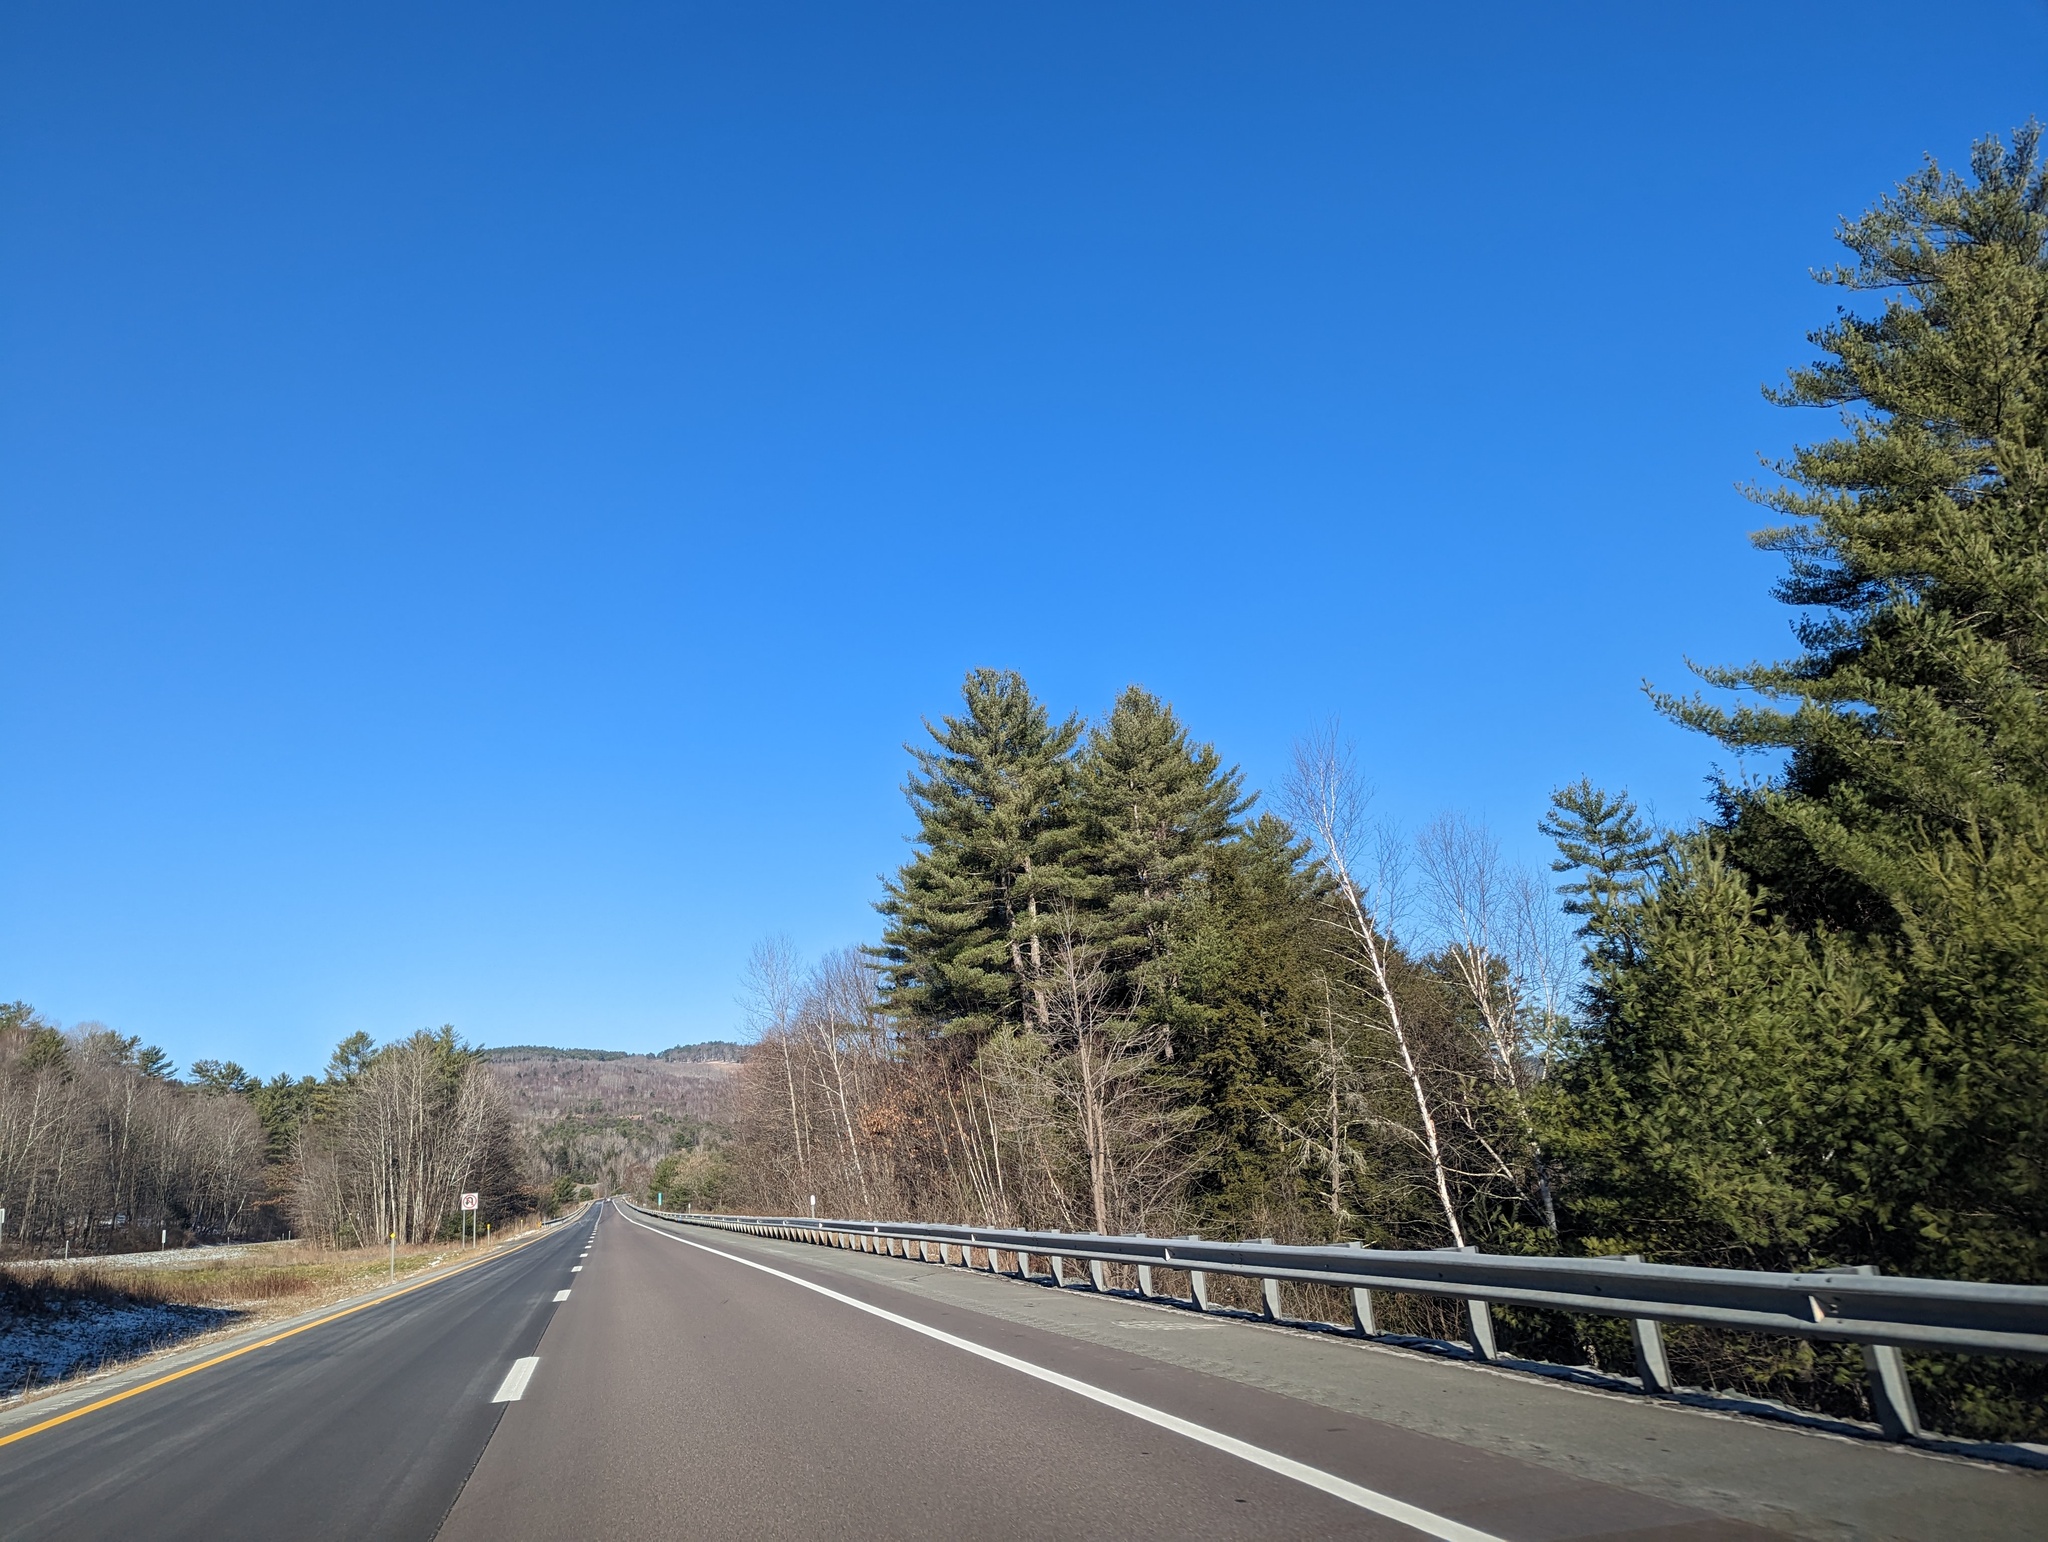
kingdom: Plantae
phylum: Tracheophyta
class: Pinopsida
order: Pinales
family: Pinaceae
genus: Pinus
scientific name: Pinus strobus
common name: Weymouth pine
